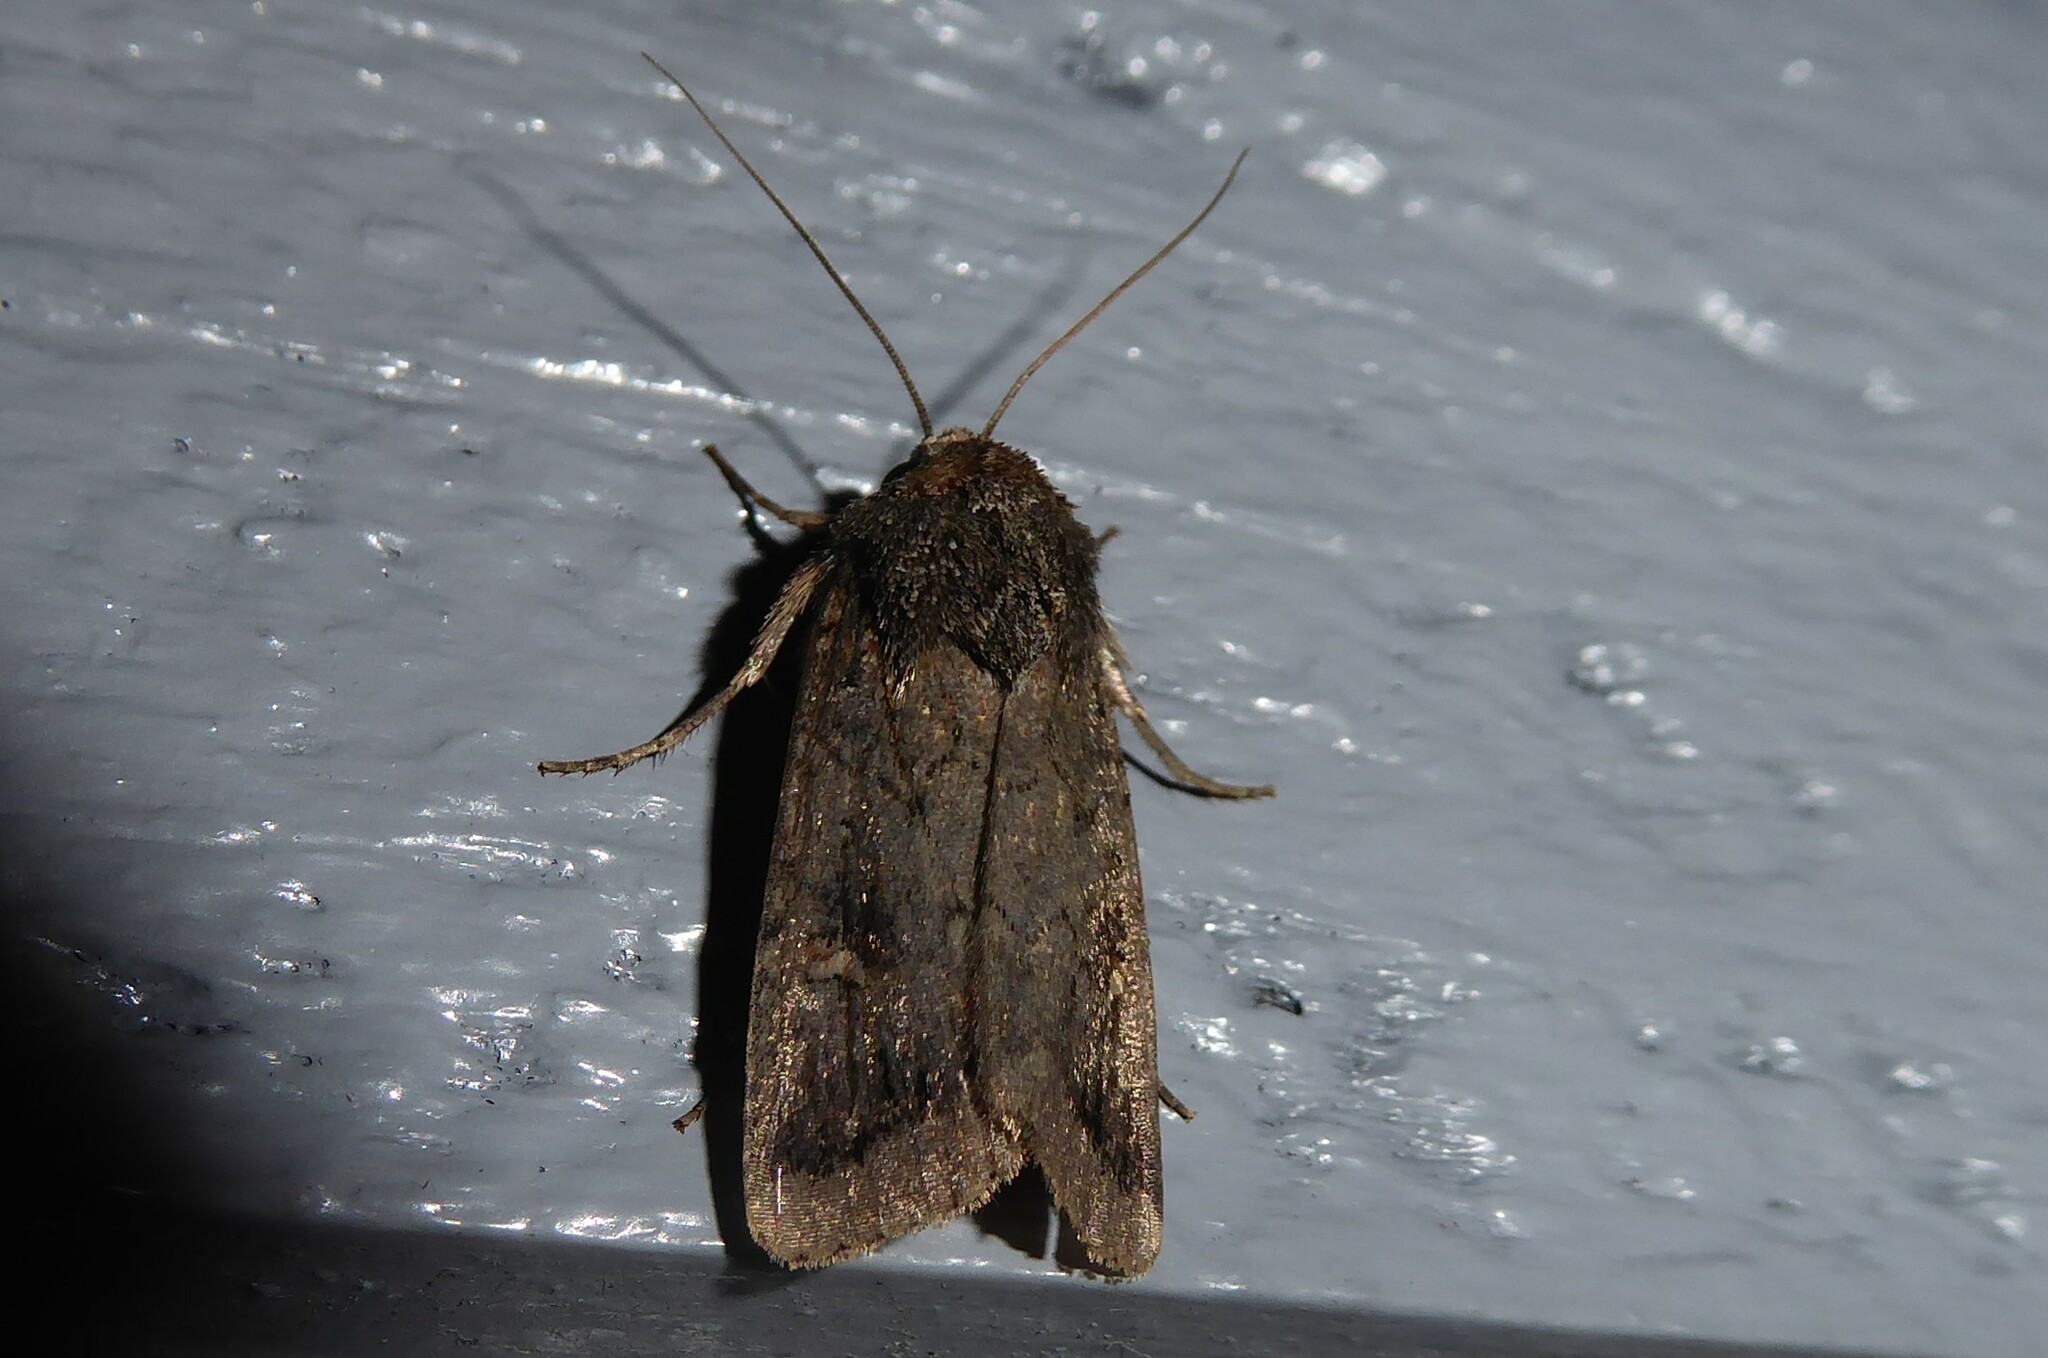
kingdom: Animalia
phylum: Arthropoda
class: Insecta
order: Lepidoptera
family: Noctuidae
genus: Proteuxoa
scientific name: Proteuxoa tetronycha
